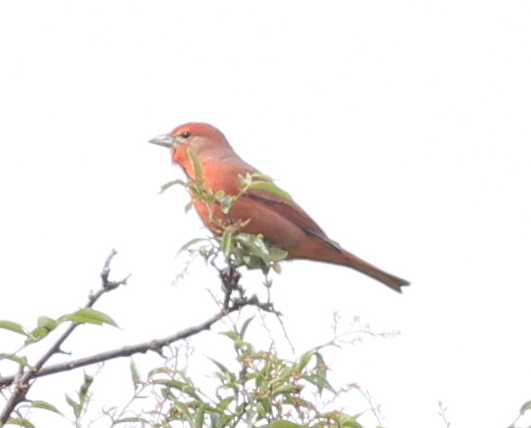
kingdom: Animalia
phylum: Chordata
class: Aves
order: Passeriformes
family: Cardinalidae
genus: Piranga
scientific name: Piranga flava
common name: Red tanager
